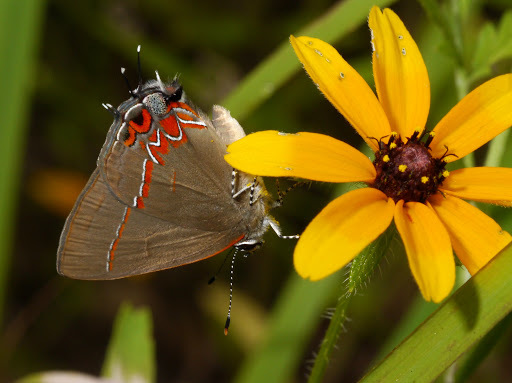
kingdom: Animalia
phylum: Arthropoda
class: Insecta
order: Lepidoptera
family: Lycaenidae
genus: Calycopis
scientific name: Calycopis isobeon
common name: Dusky-blue groundstreak
